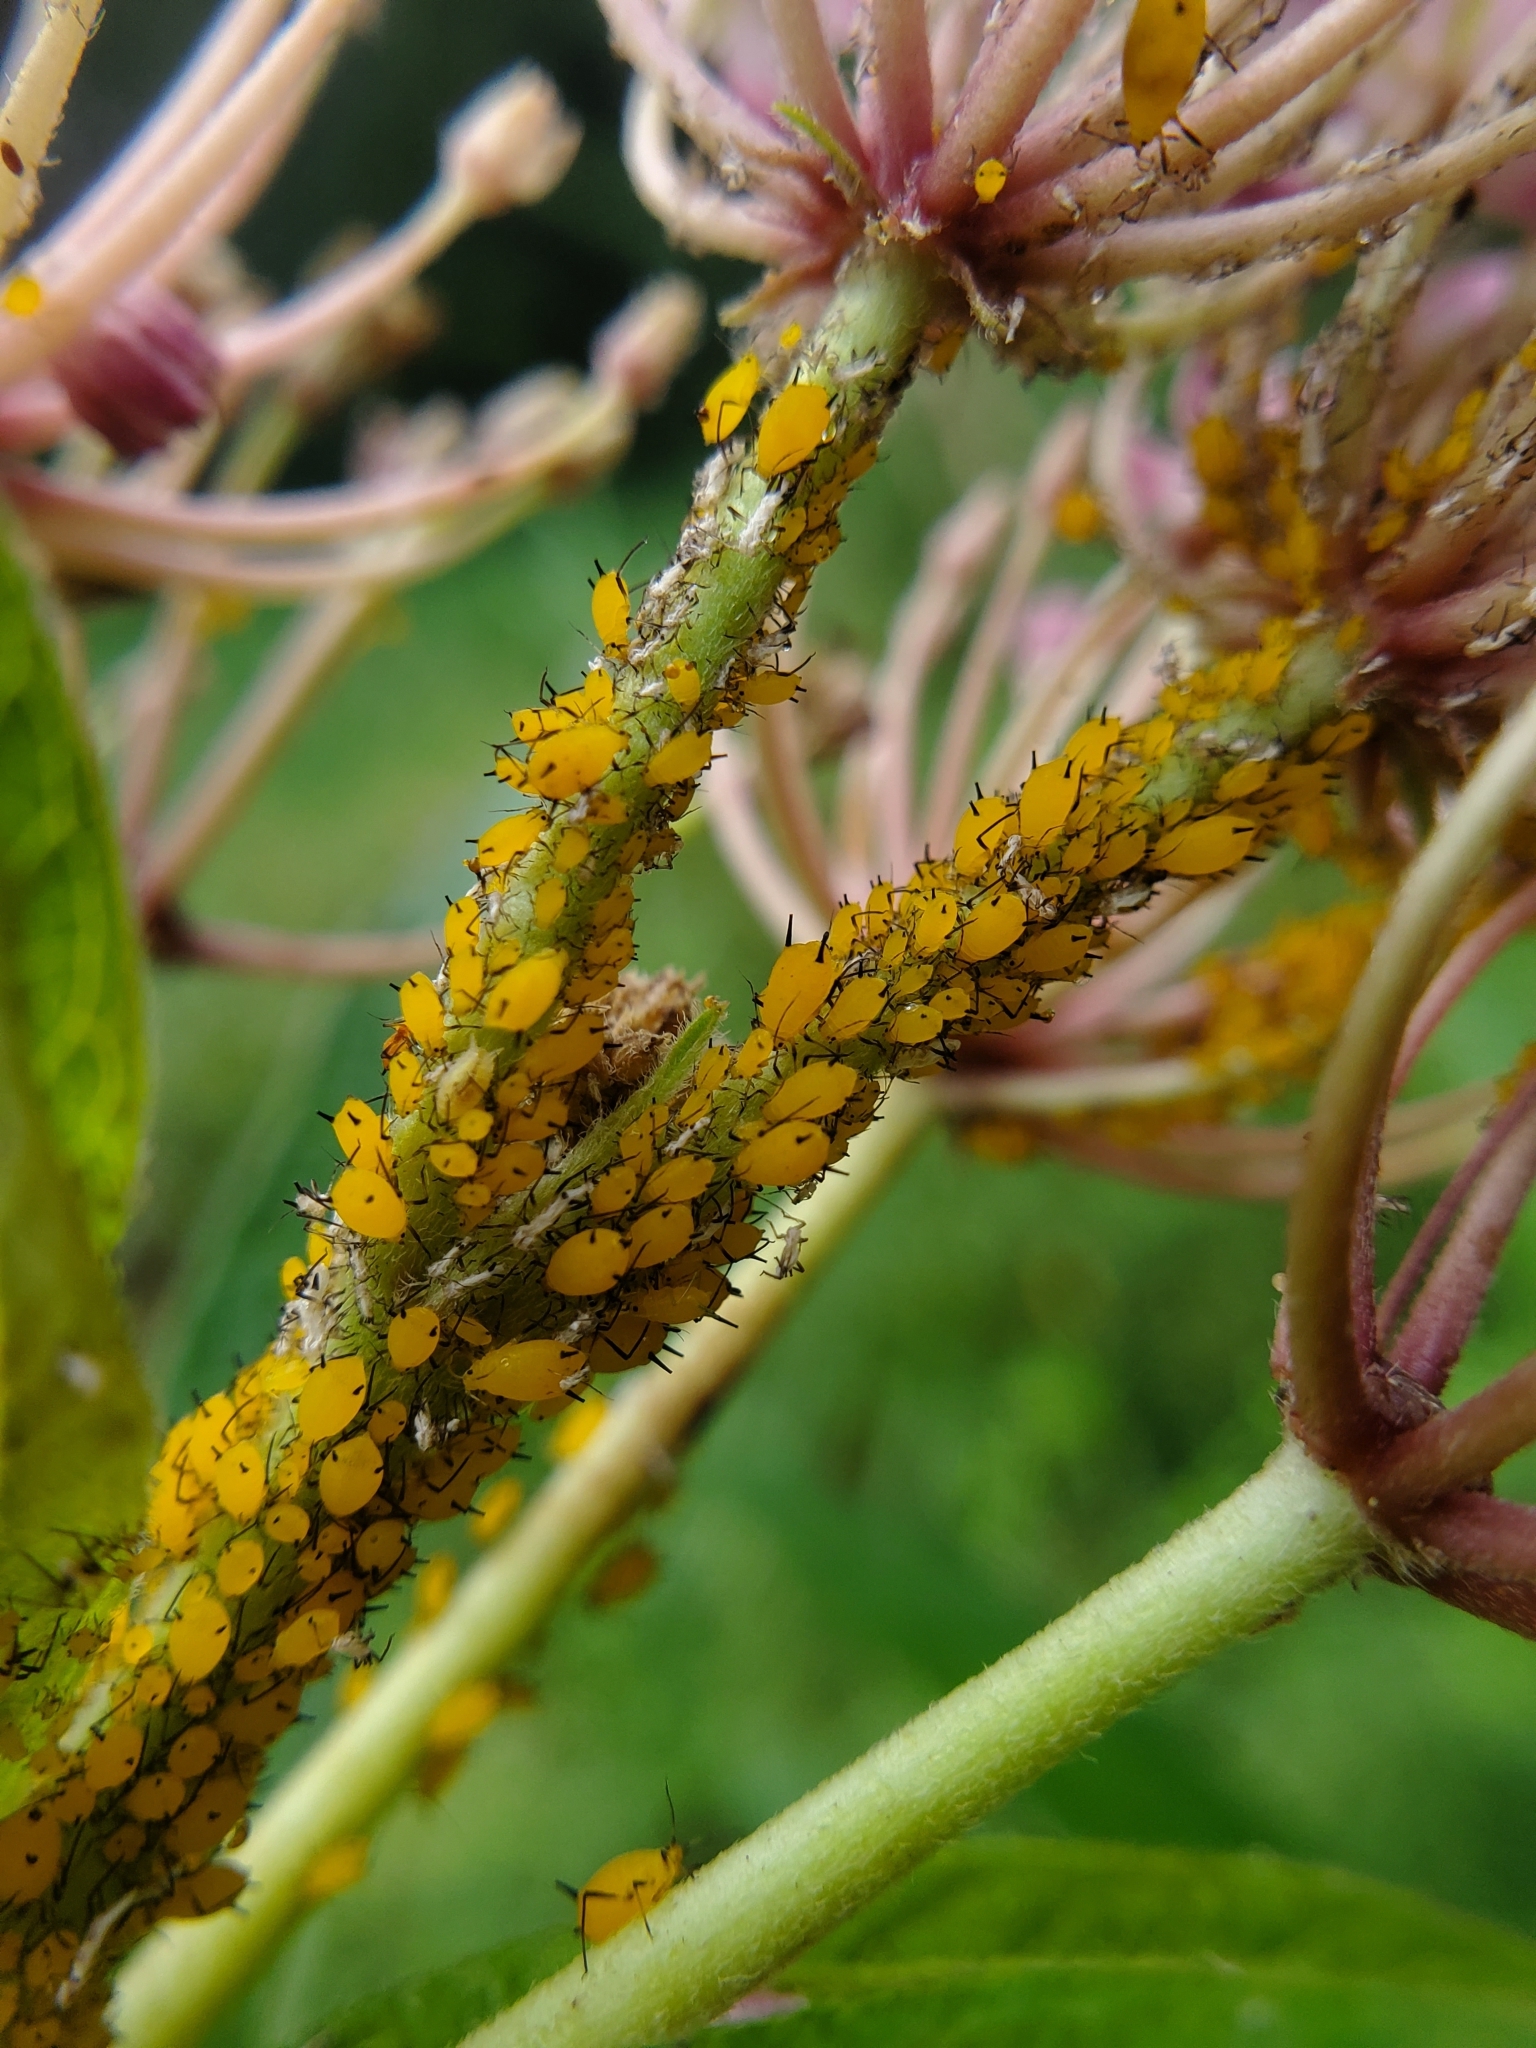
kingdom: Animalia
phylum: Arthropoda
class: Insecta
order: Hemiptera
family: Aphididae
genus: Aphis
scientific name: Aphis nerii
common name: Oleander aphid
